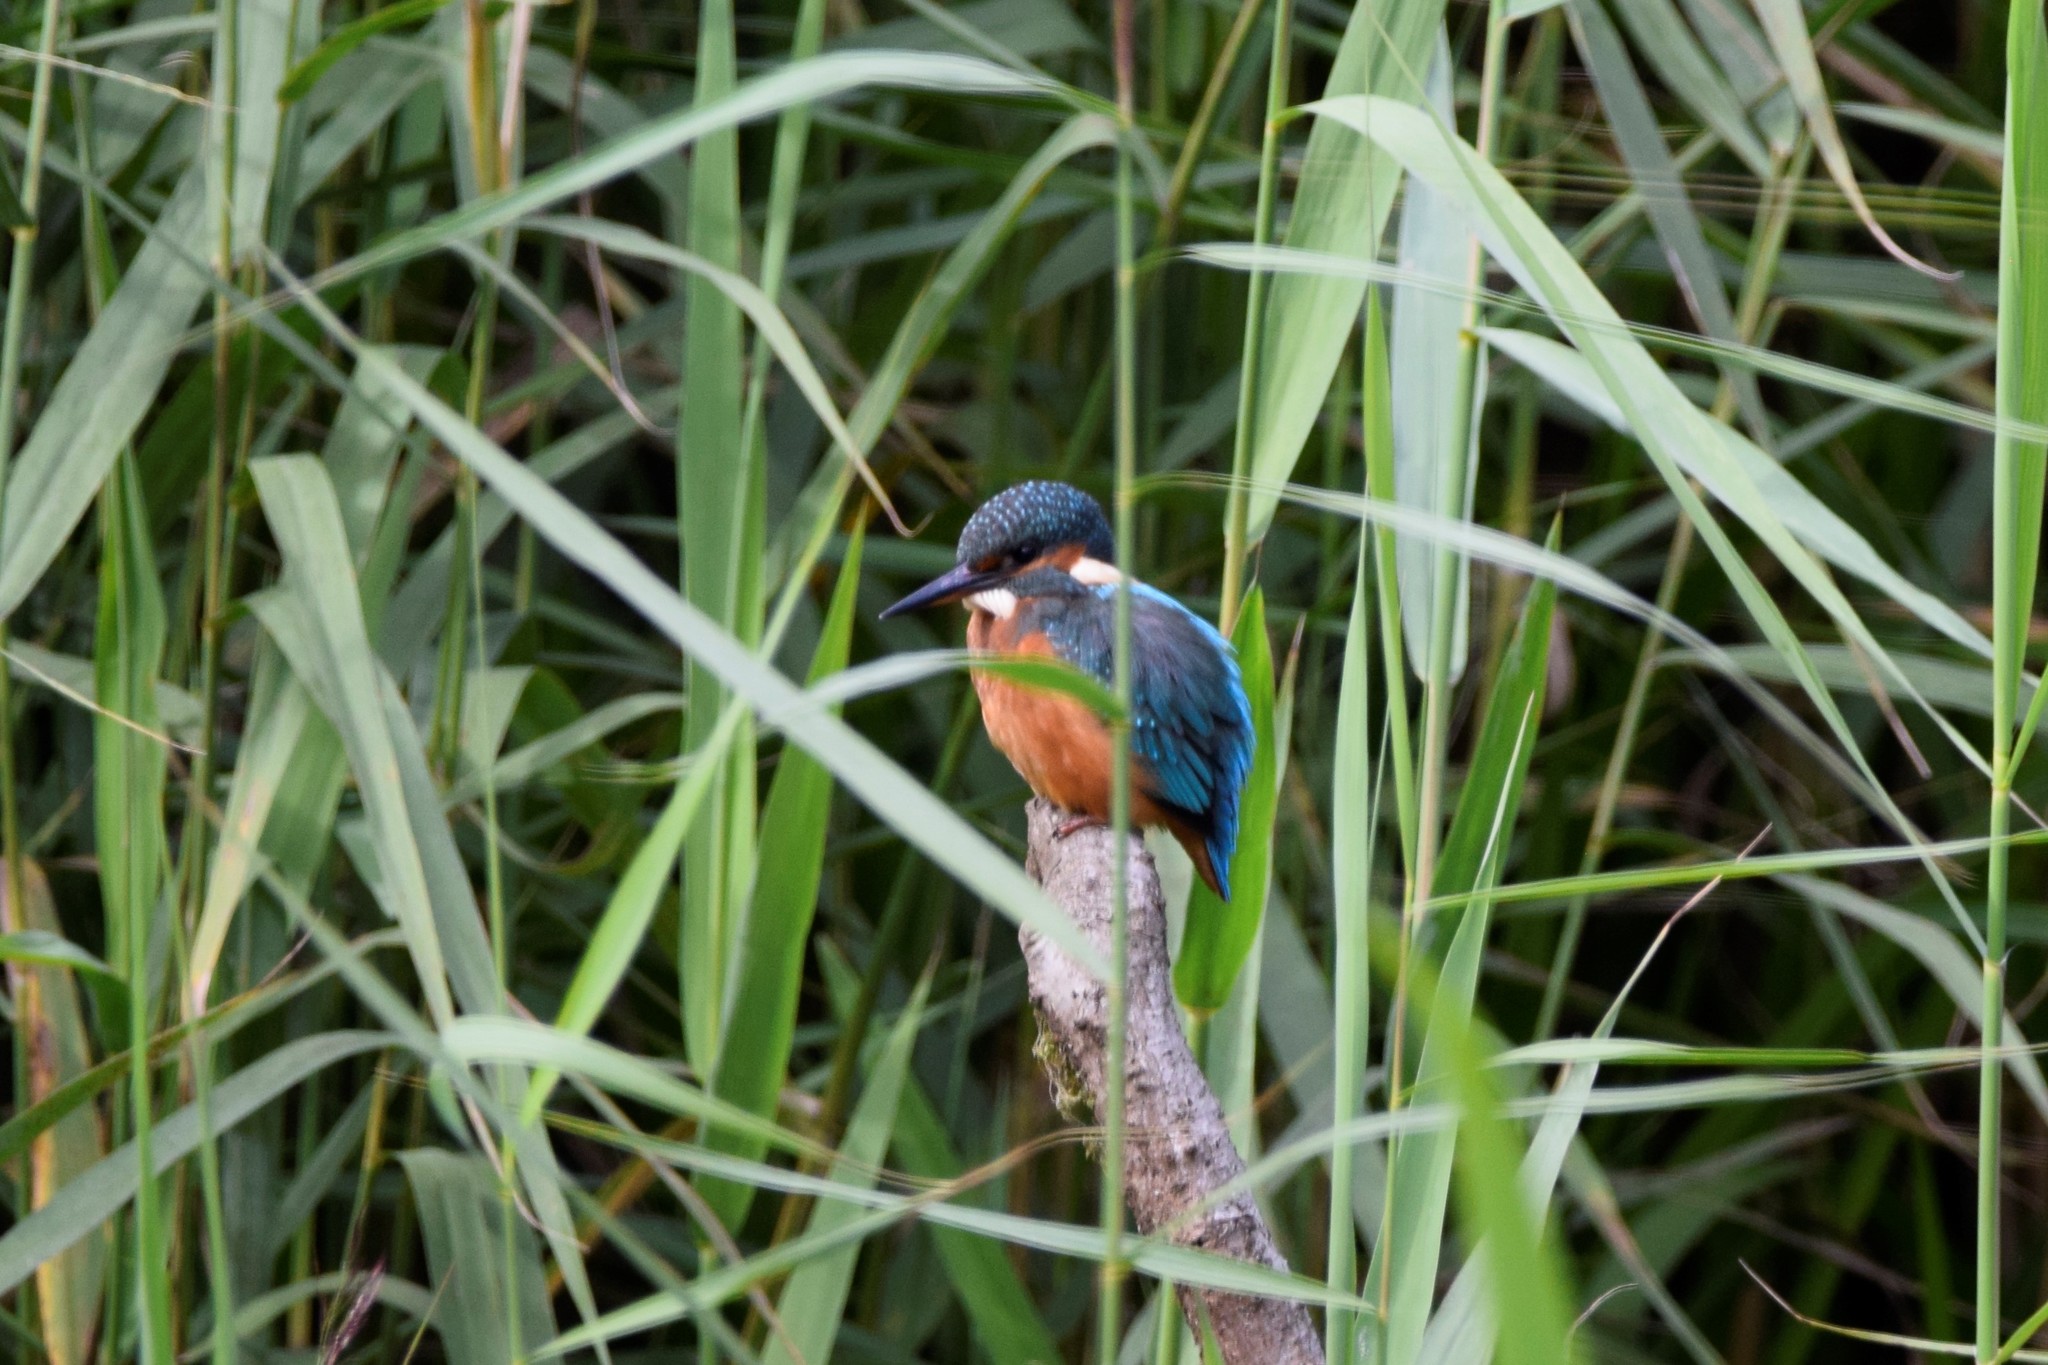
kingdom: Animalia
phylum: Chordata
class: Aves
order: Coraciiformes
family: Alcedinidae
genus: Alcedo
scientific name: Alcedo atthis
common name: Common kingfisher
